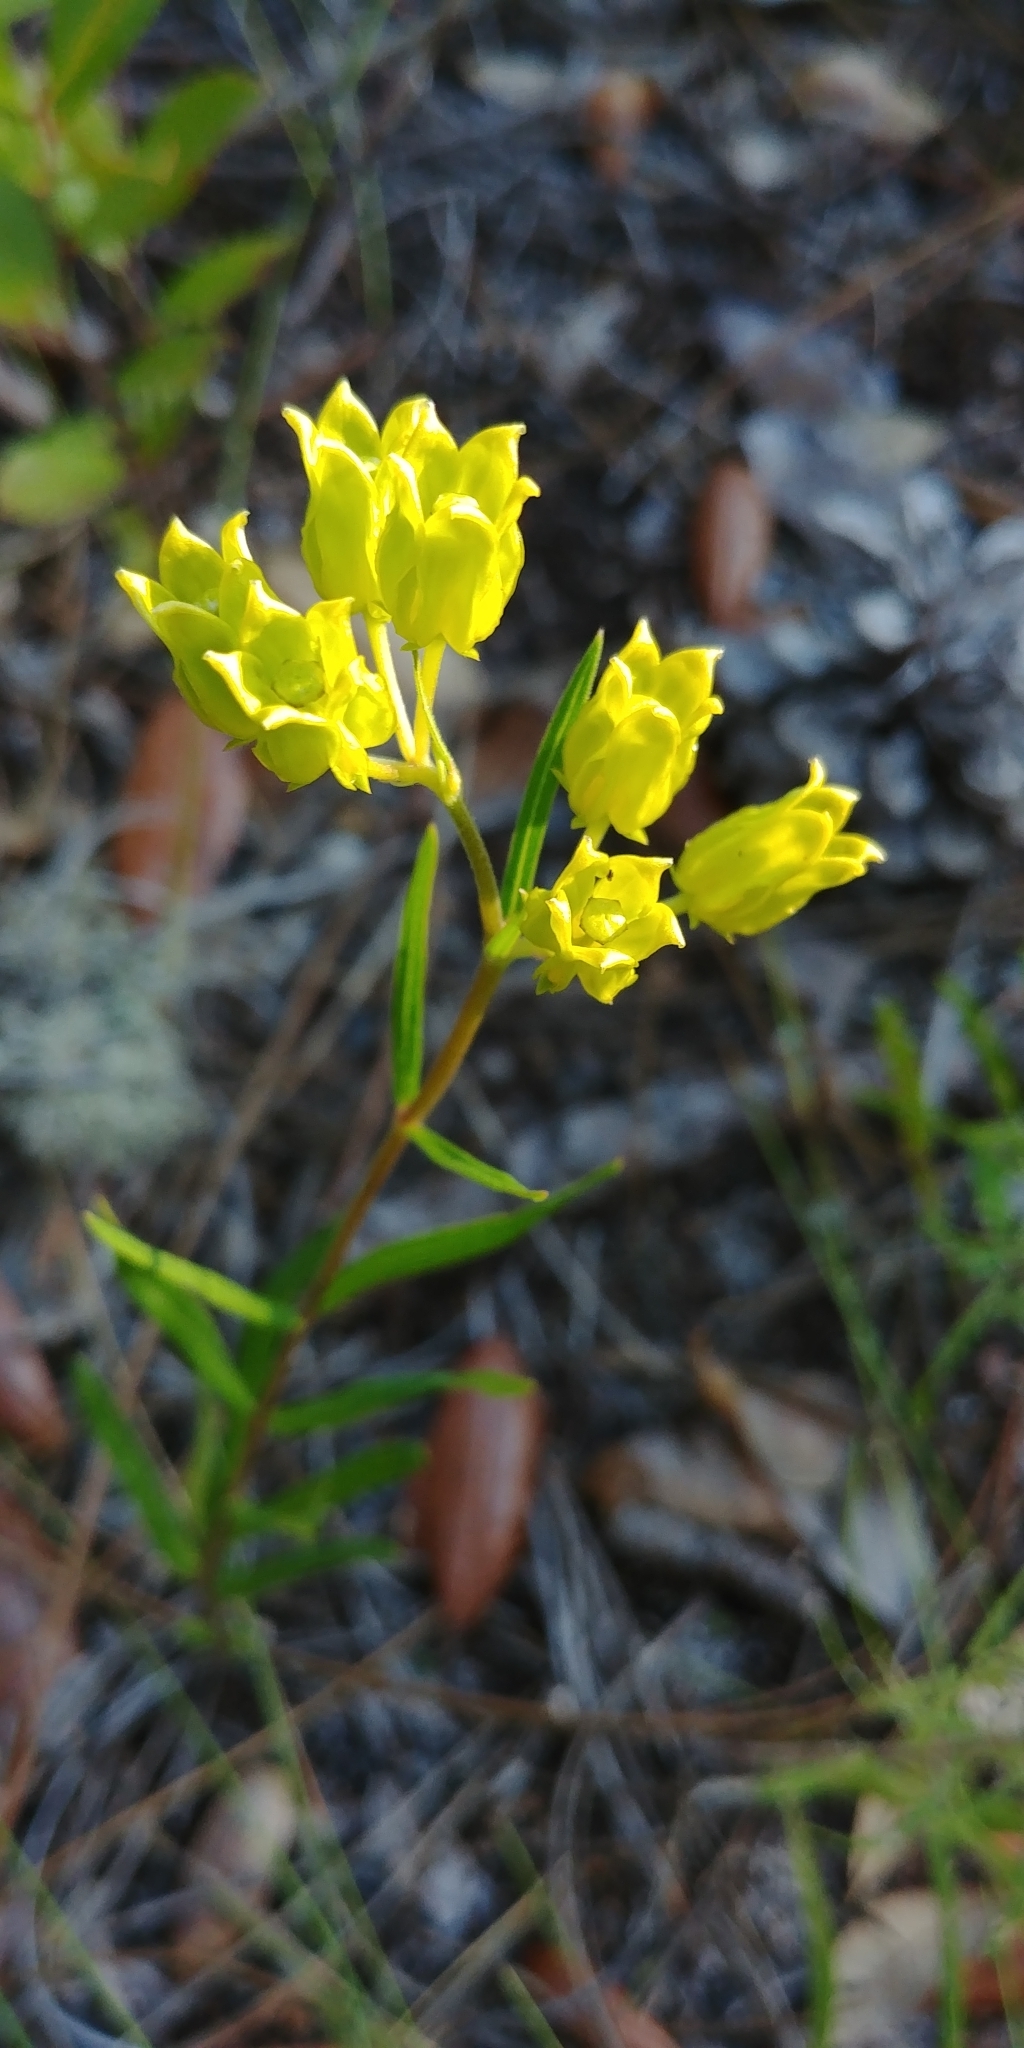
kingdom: Plantae
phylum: Tracheophyta
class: Magnoliopsida
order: Gentianales
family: Apocynaceae
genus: Asclepias
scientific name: Asclepias pedicellata
